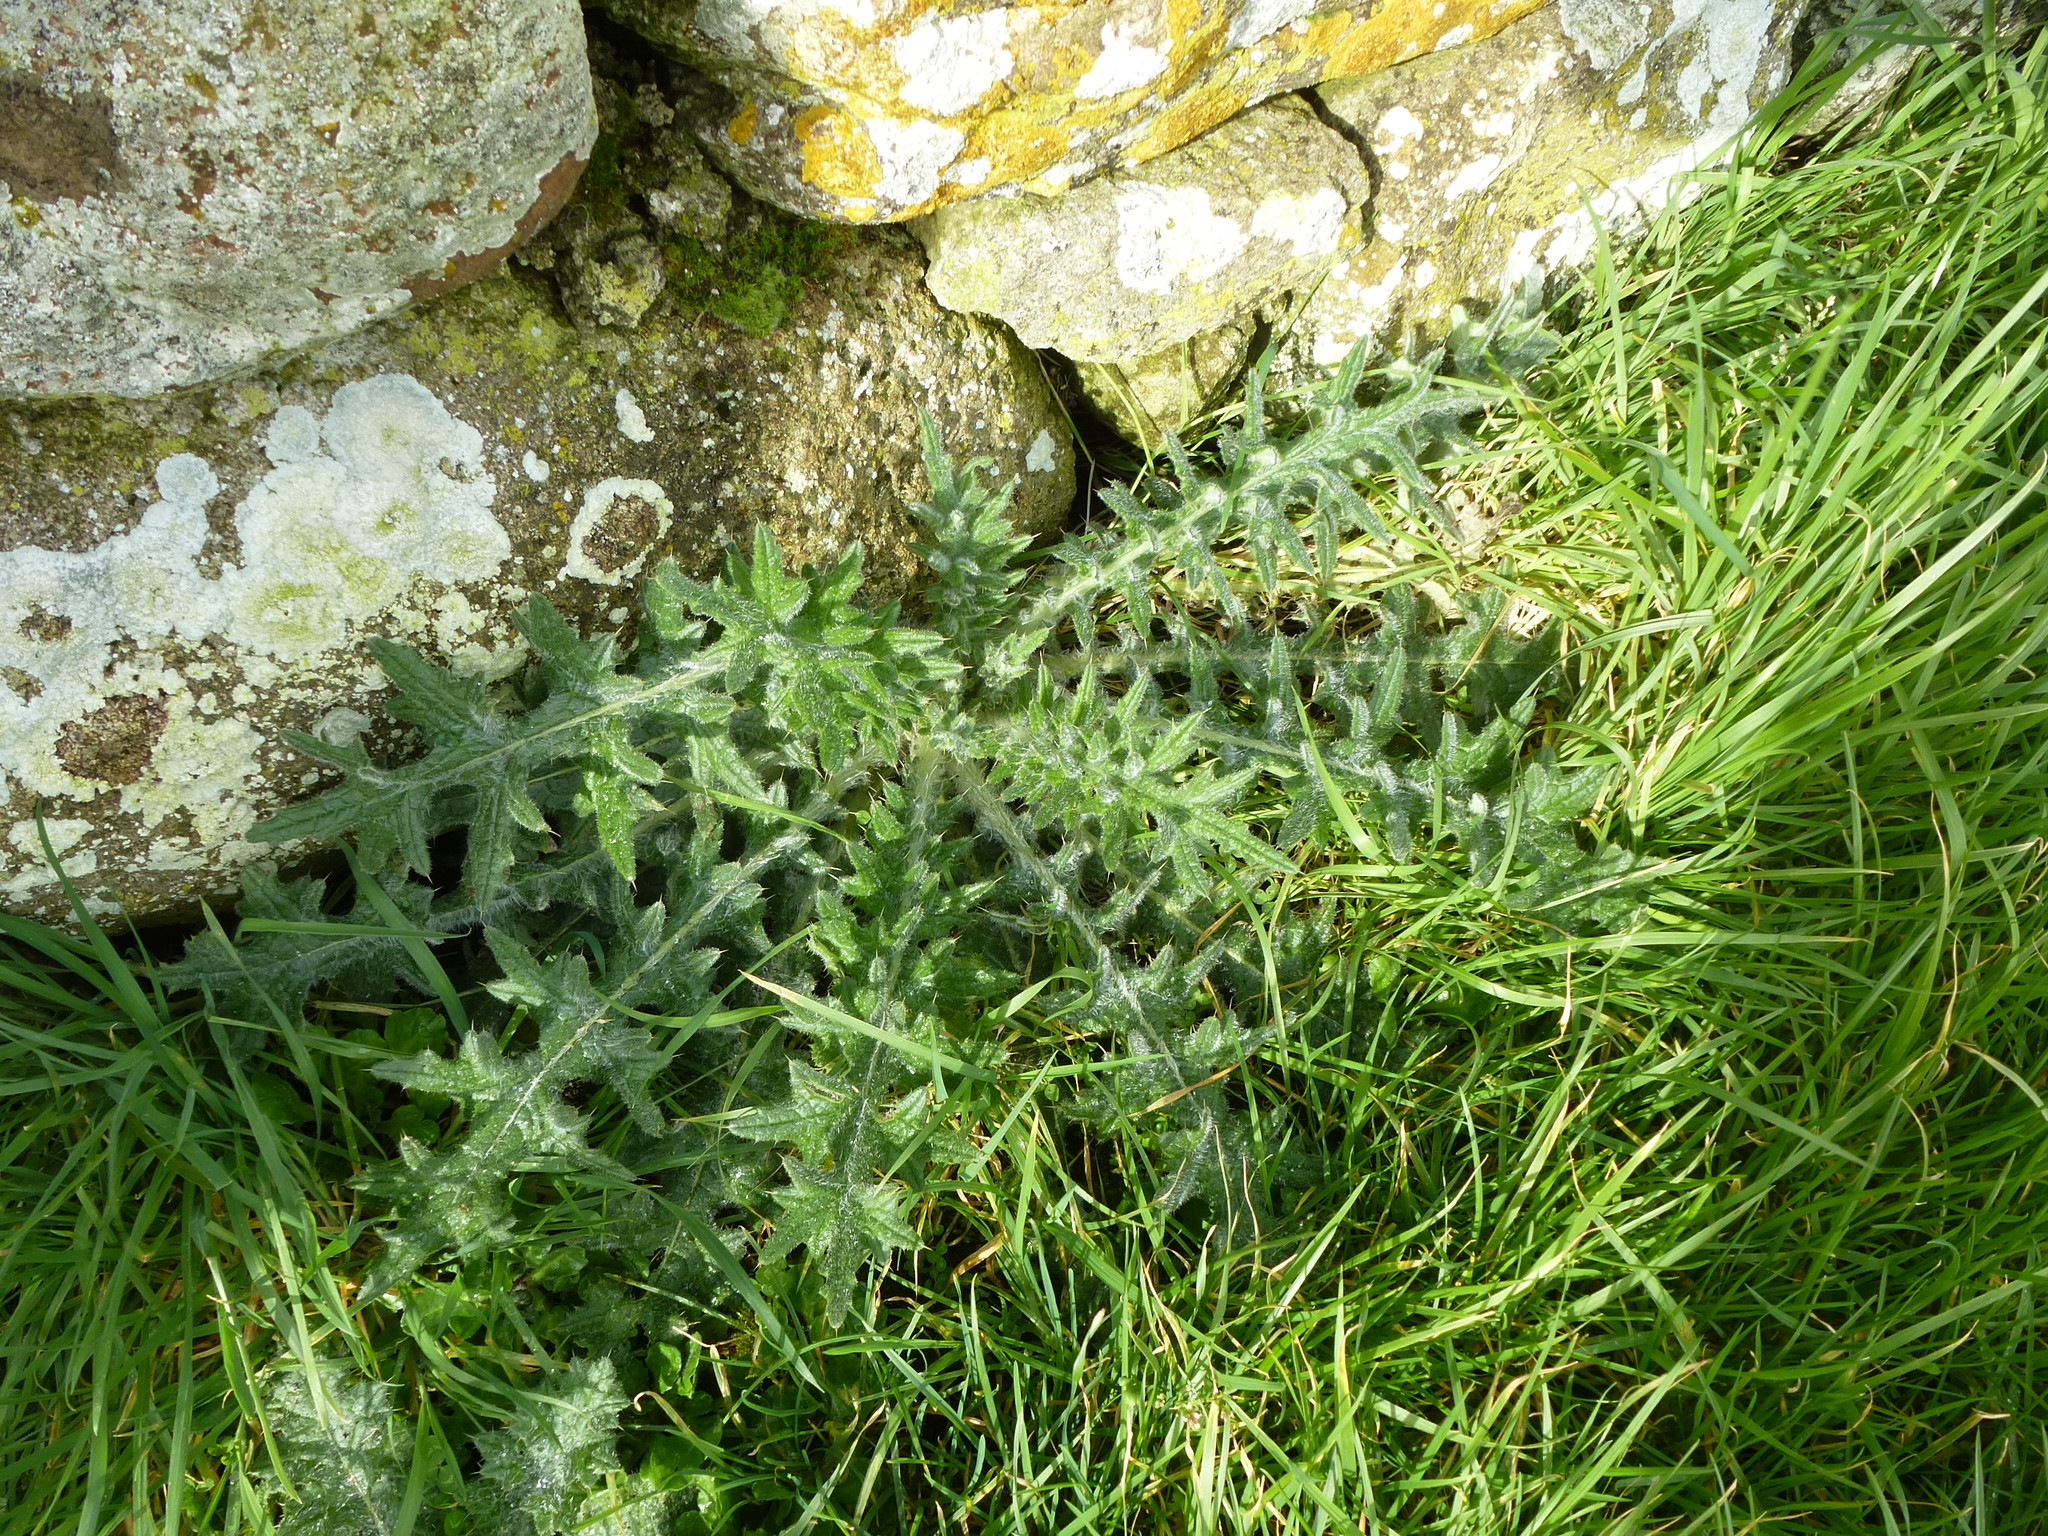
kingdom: Plantae
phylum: Tracheophyta
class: Magnoliopsida
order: Asterales
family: Asteraceae
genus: Cirsium
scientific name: Cirsium vulgare
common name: Bull thistle
